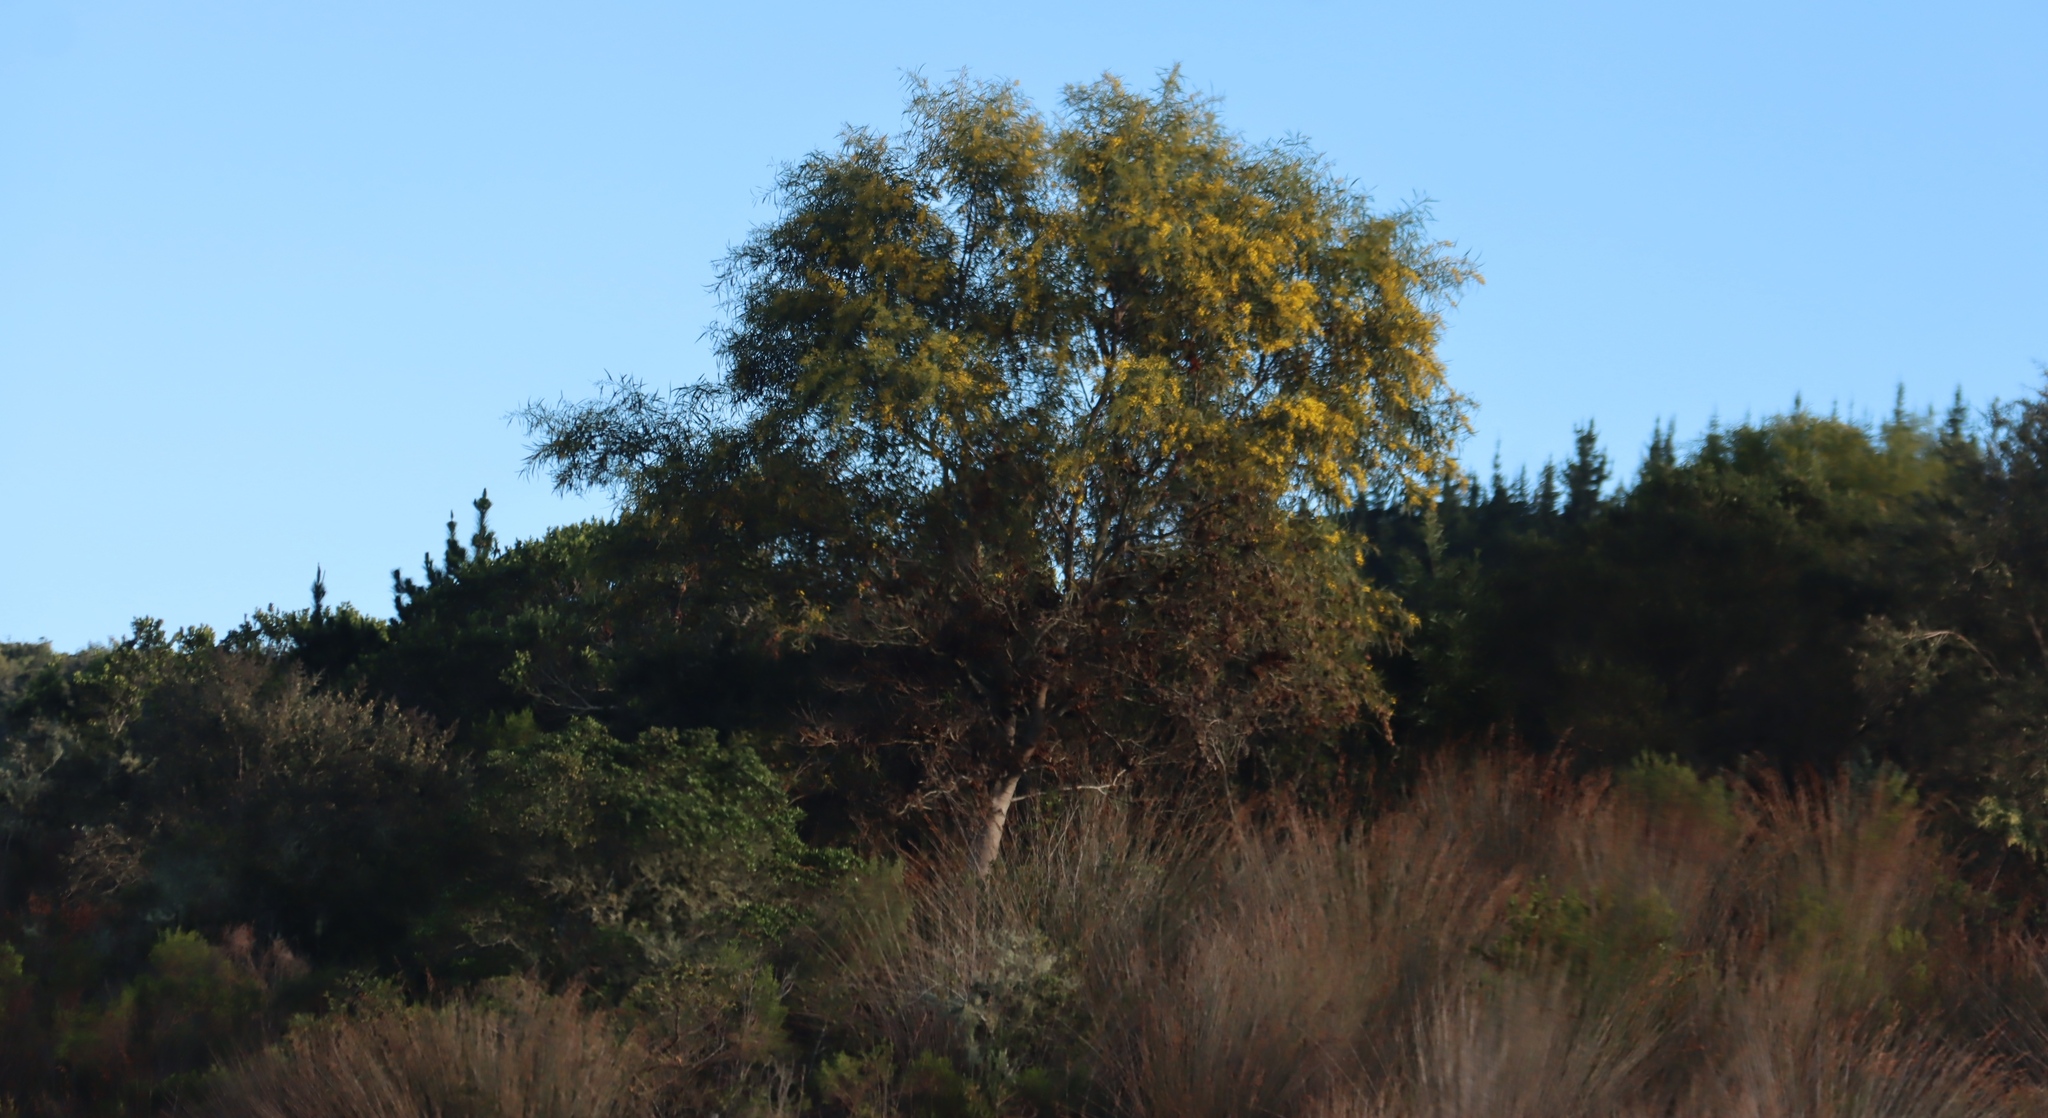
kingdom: Plantae
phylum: Tracheophyta
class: Magnoliopsida
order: Fabales
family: Fabaceae
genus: Acacia
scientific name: Acacia saligna
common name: Orange wattle
